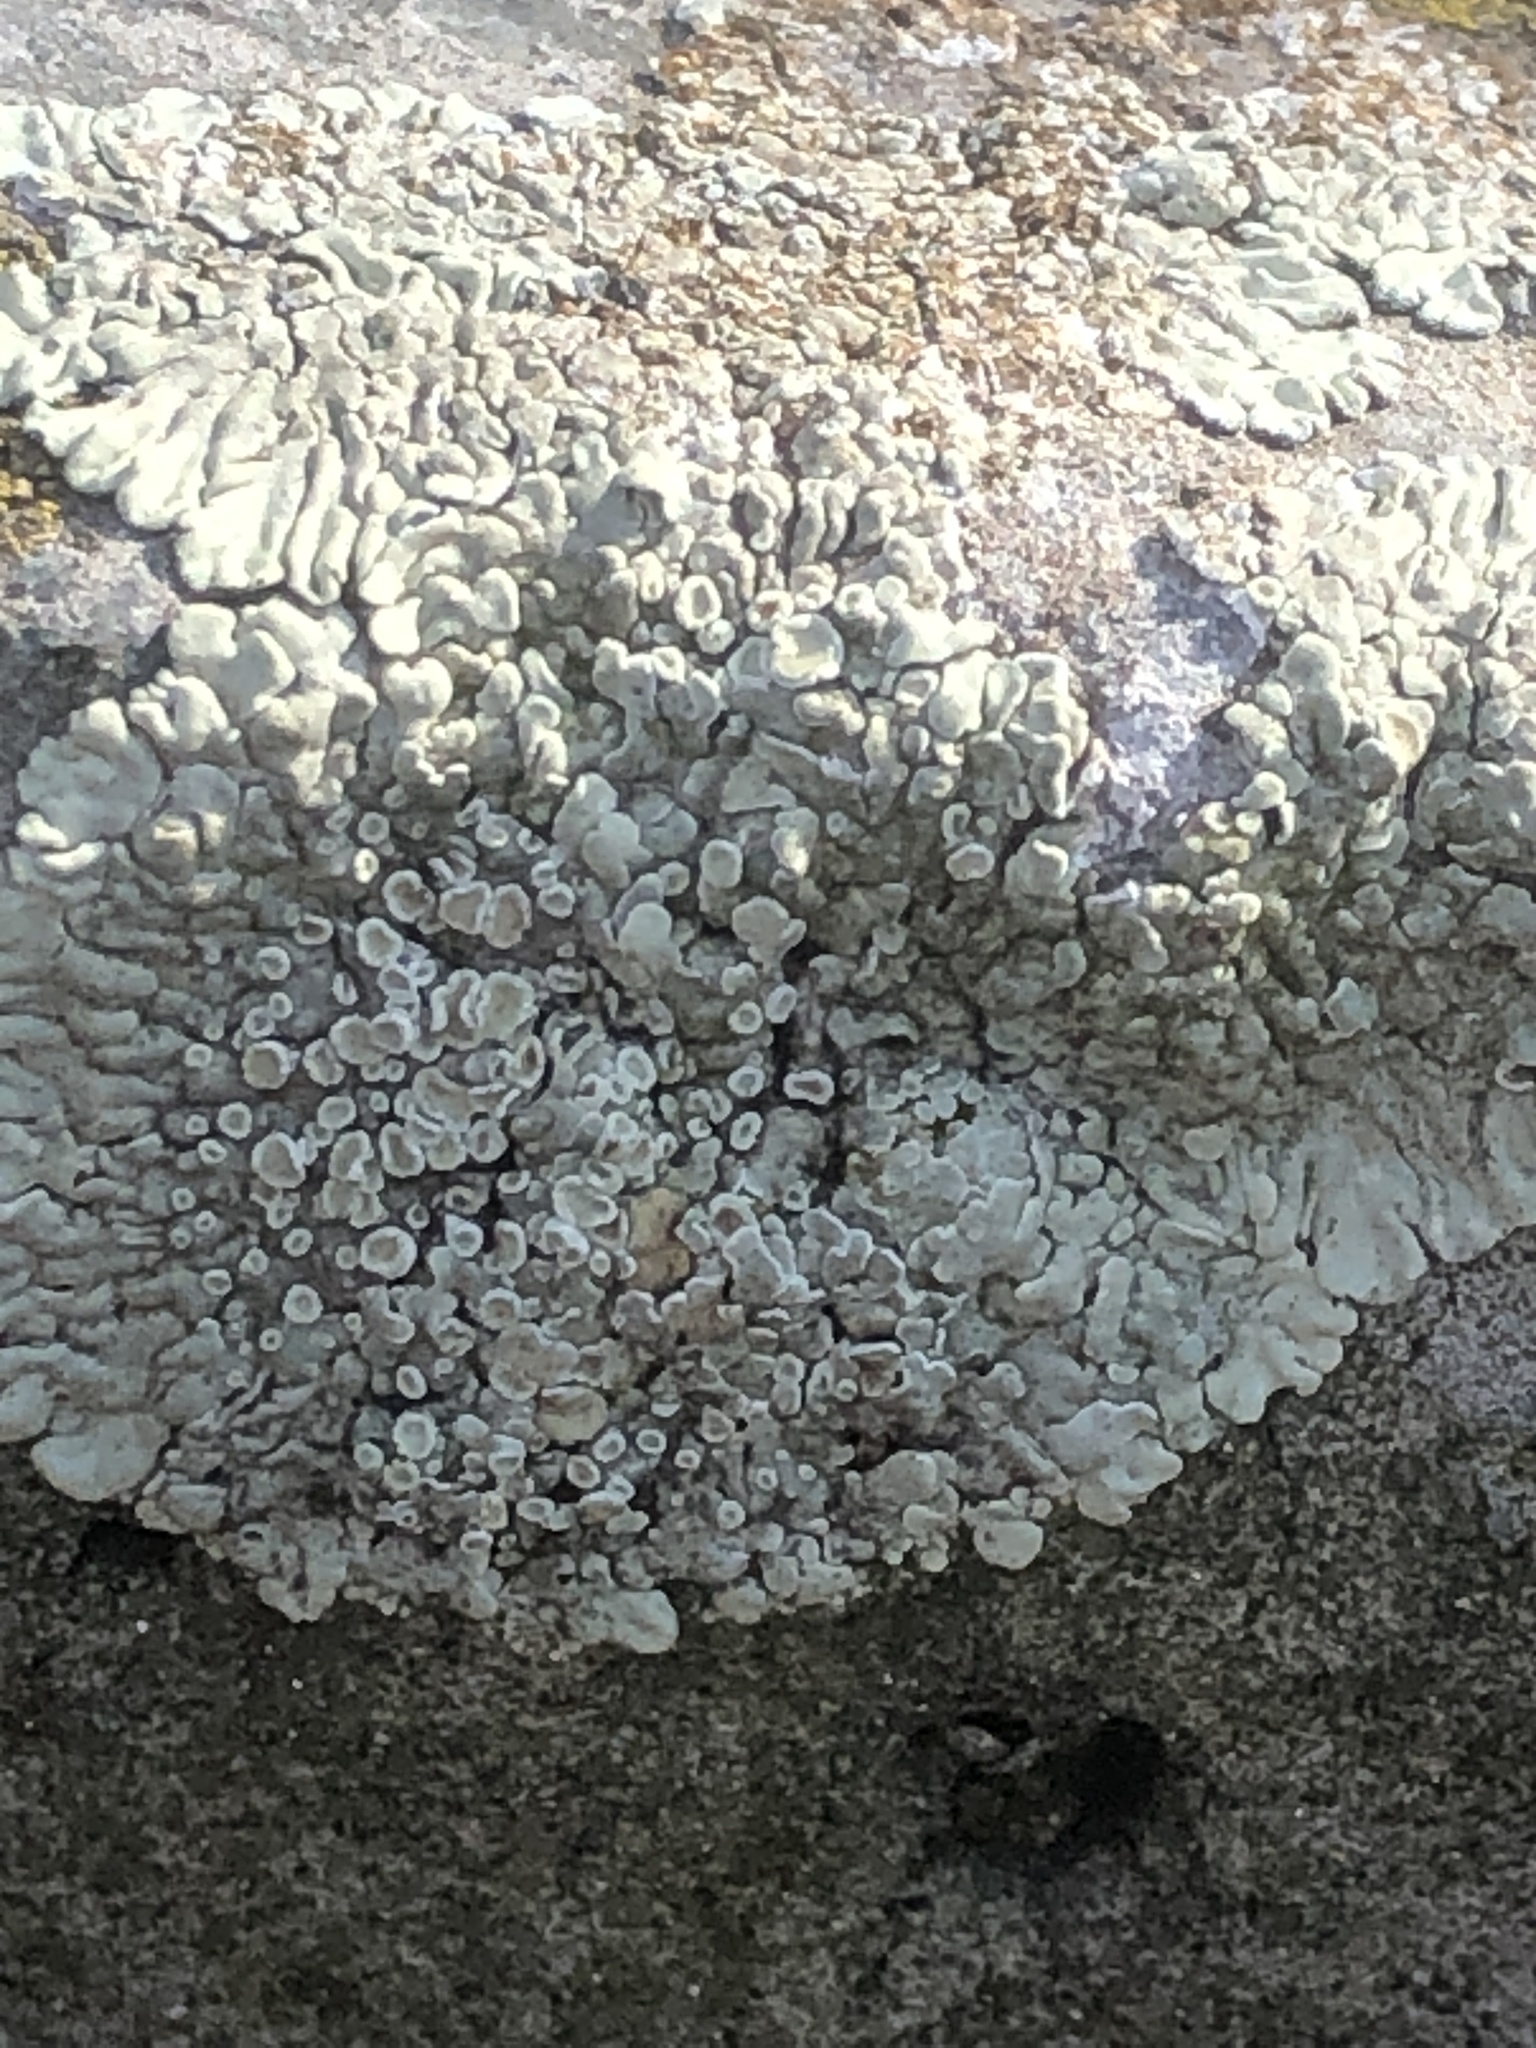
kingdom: Fungi
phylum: Ascomycota
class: Lecanoromycetes
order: Lecanorales
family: Lecanoraceae
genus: Protoparmeliopsis
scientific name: Protoparmeliopsis muralis
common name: Stonewall rim lichen
